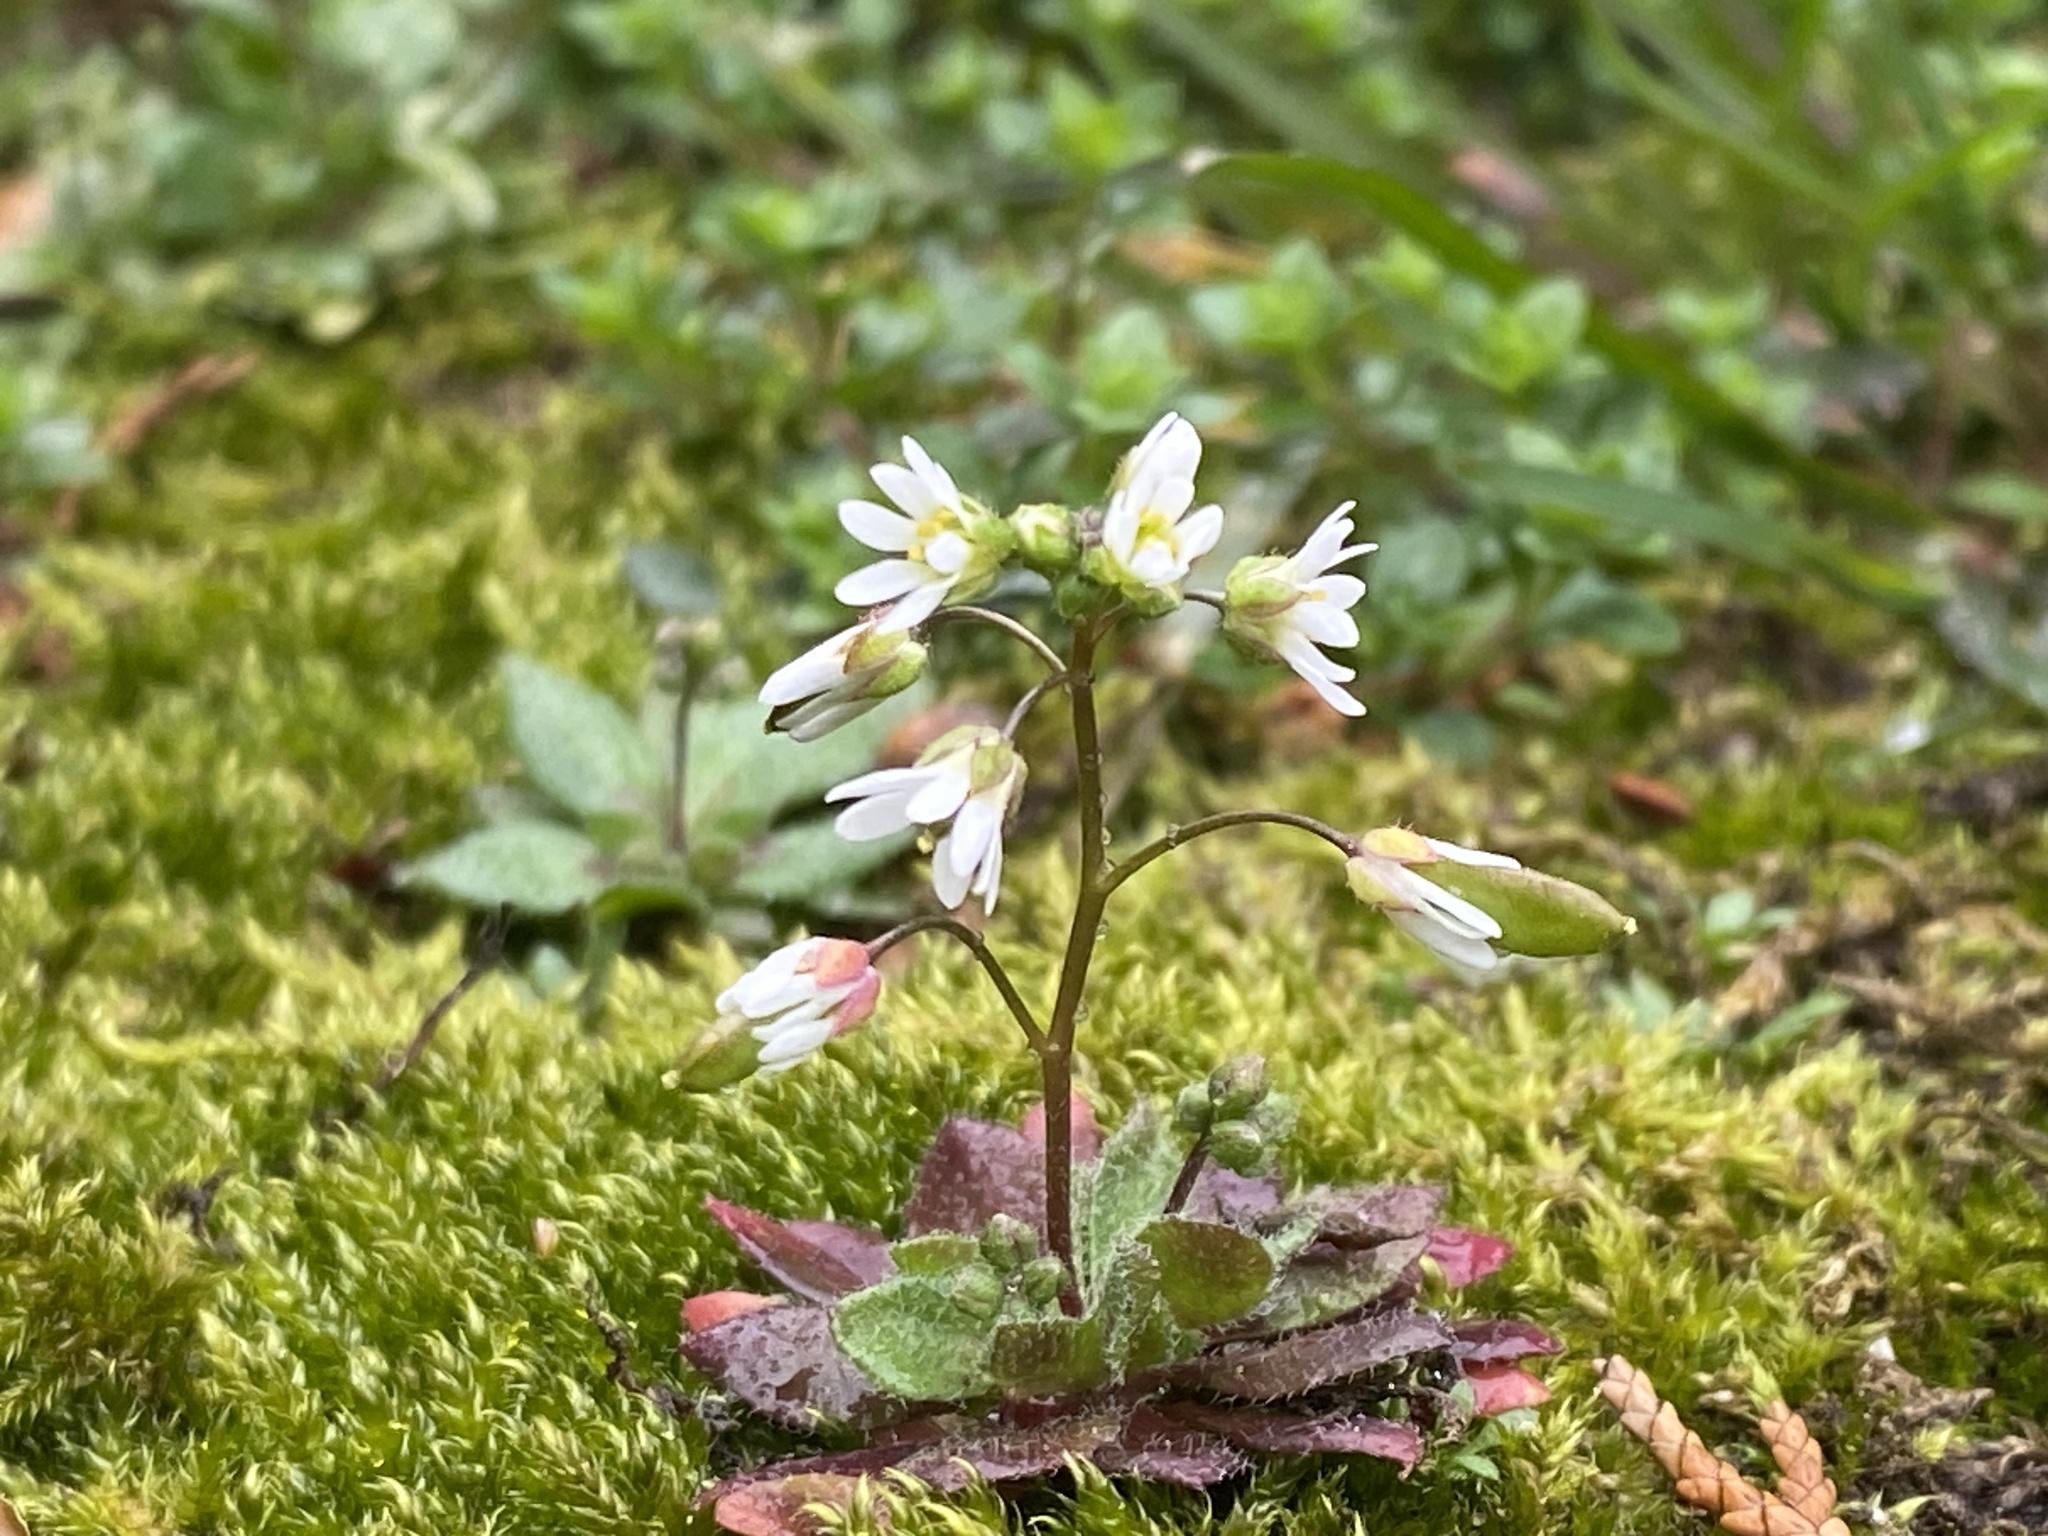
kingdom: Plantae
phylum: Tracheophyta
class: Magnoliopsida
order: Brassicales
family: Brassicaceae
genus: Draba
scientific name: Draba verna
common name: Spring draba
